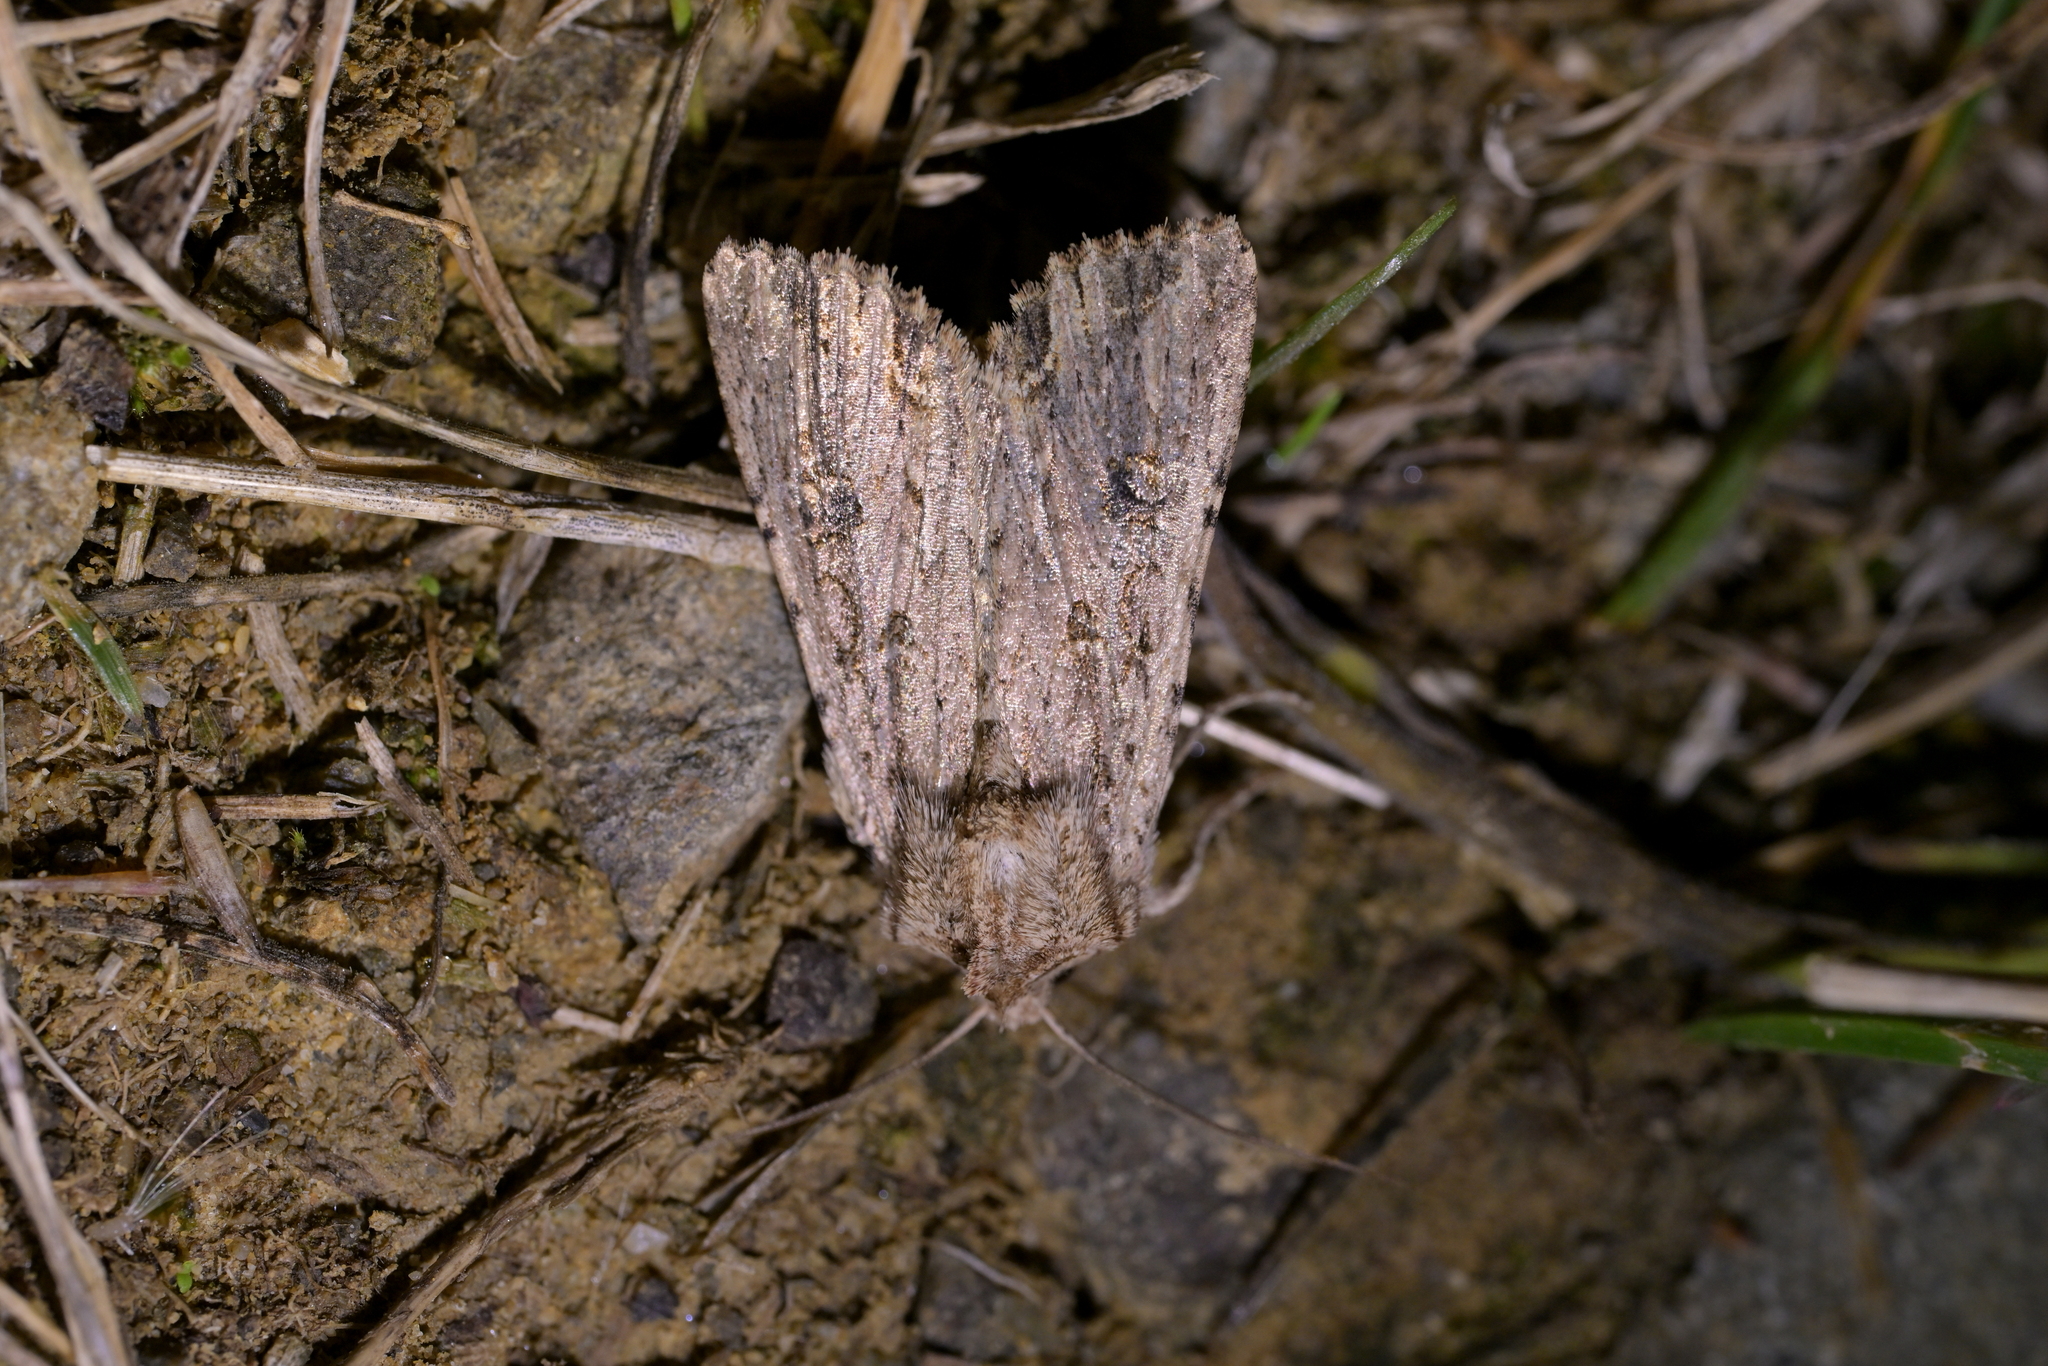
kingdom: Animalia
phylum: Arthropoda
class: Insecta
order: Lepidoptera
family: Noctuidae
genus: Ichneutica
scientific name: Ichneutica lignana
